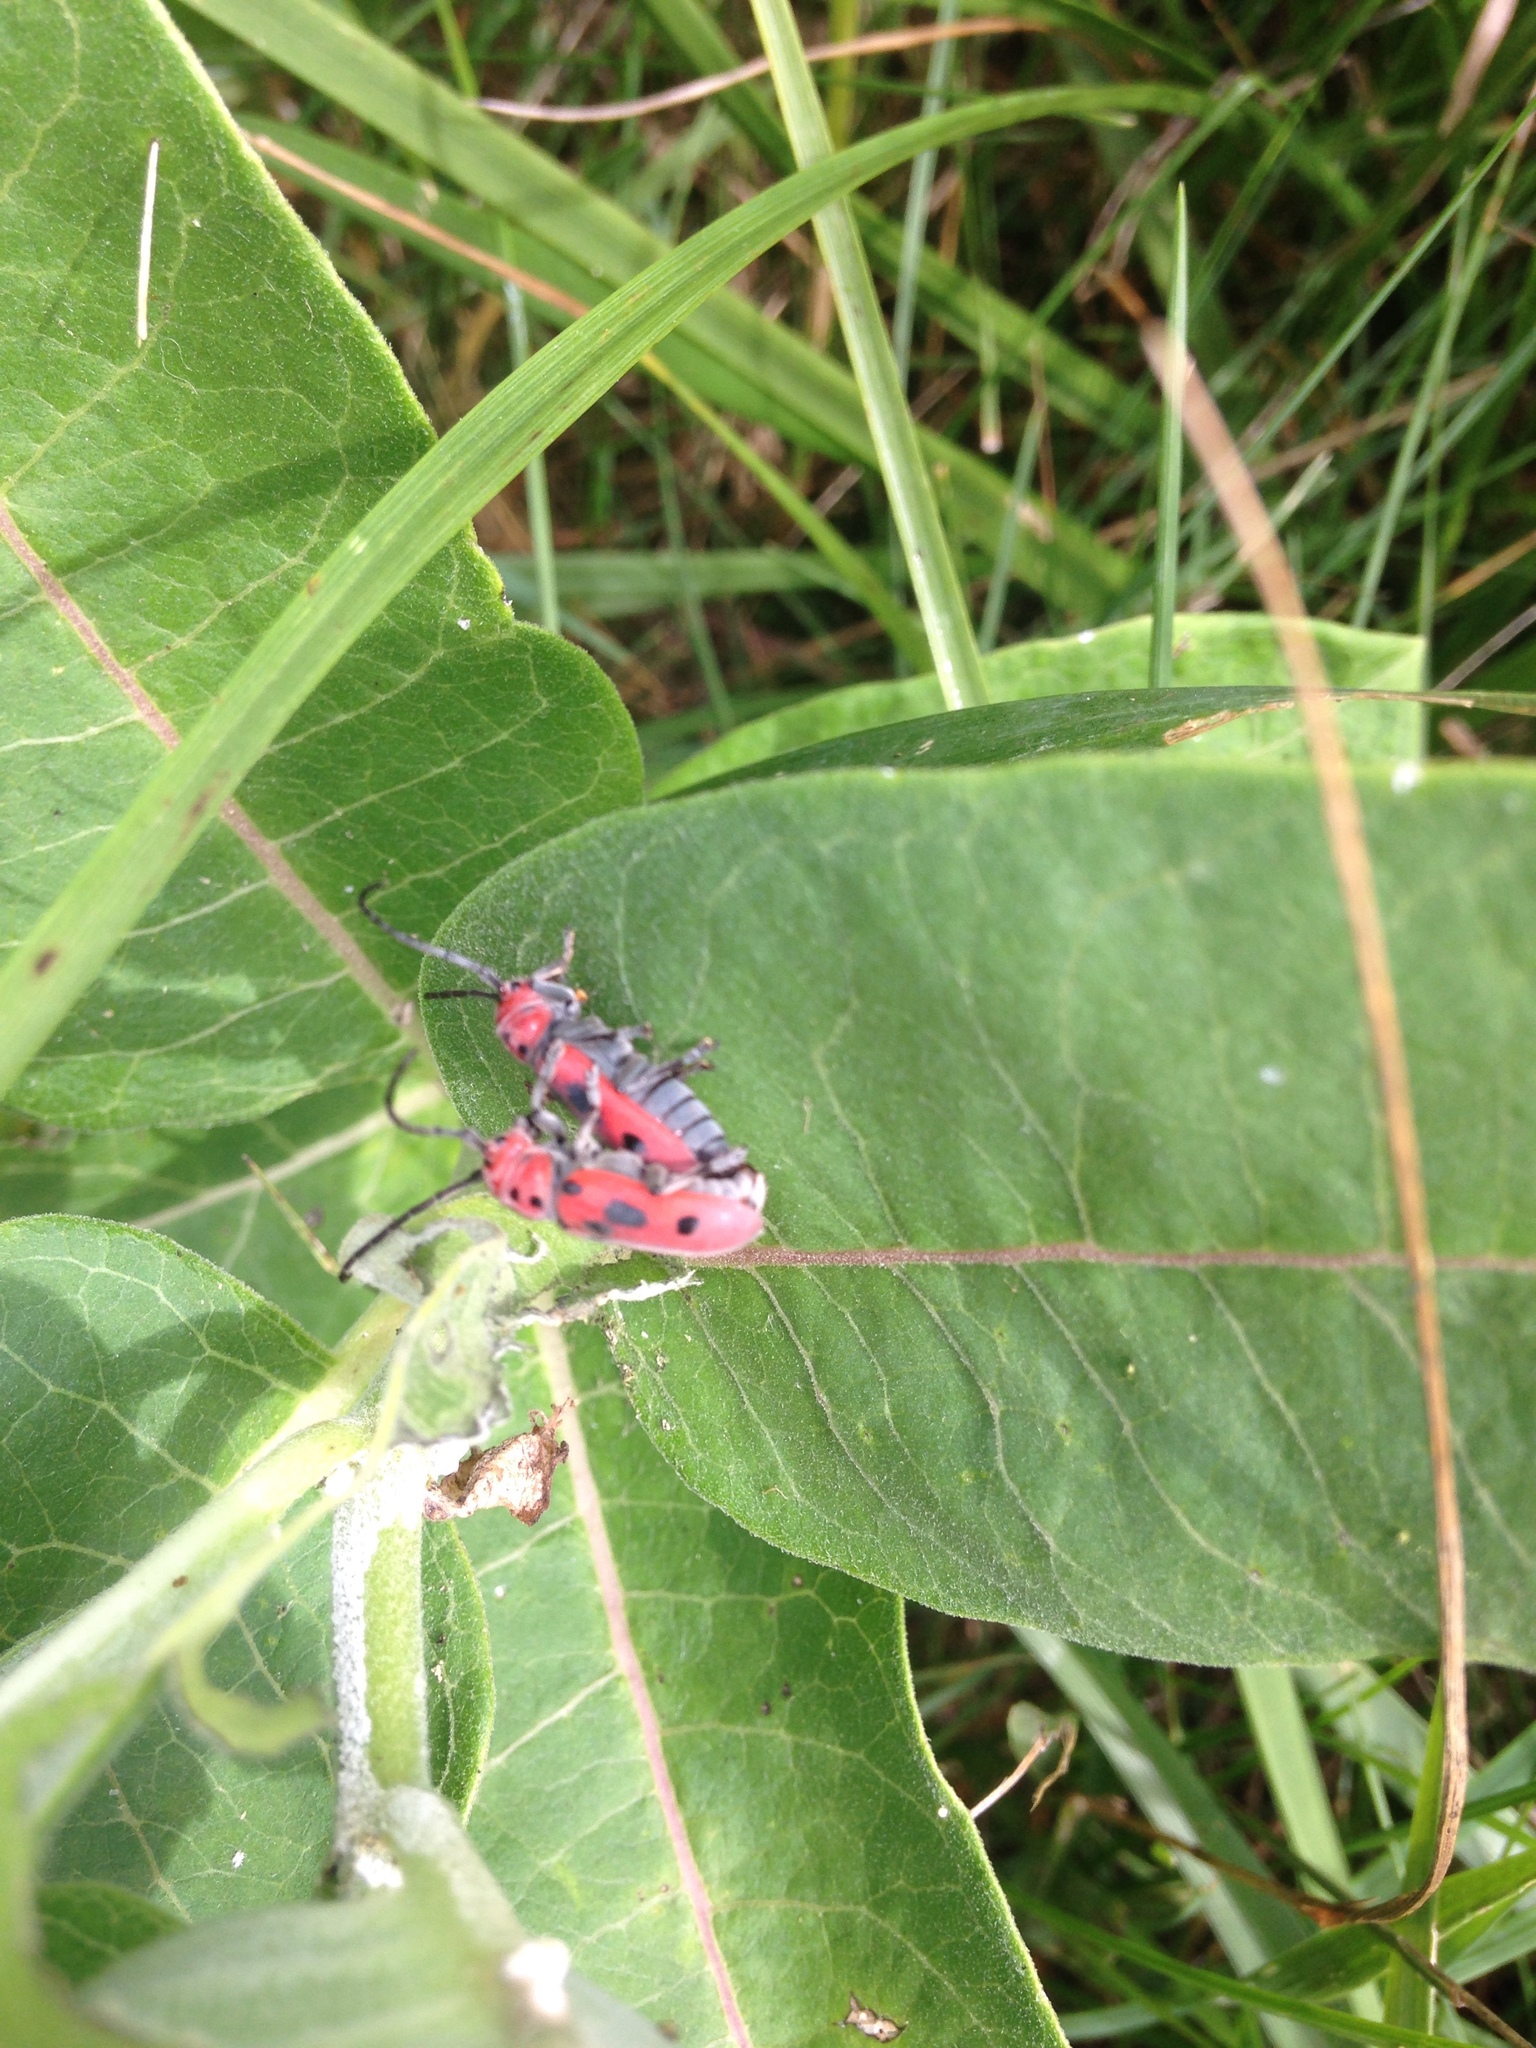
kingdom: Animalia
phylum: Arthropoda
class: Insecta
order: Coleoptera
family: Cerambycidae
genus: Tetraopes
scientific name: Tetraopes tetrophthalmus
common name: Red milkweed beetle
